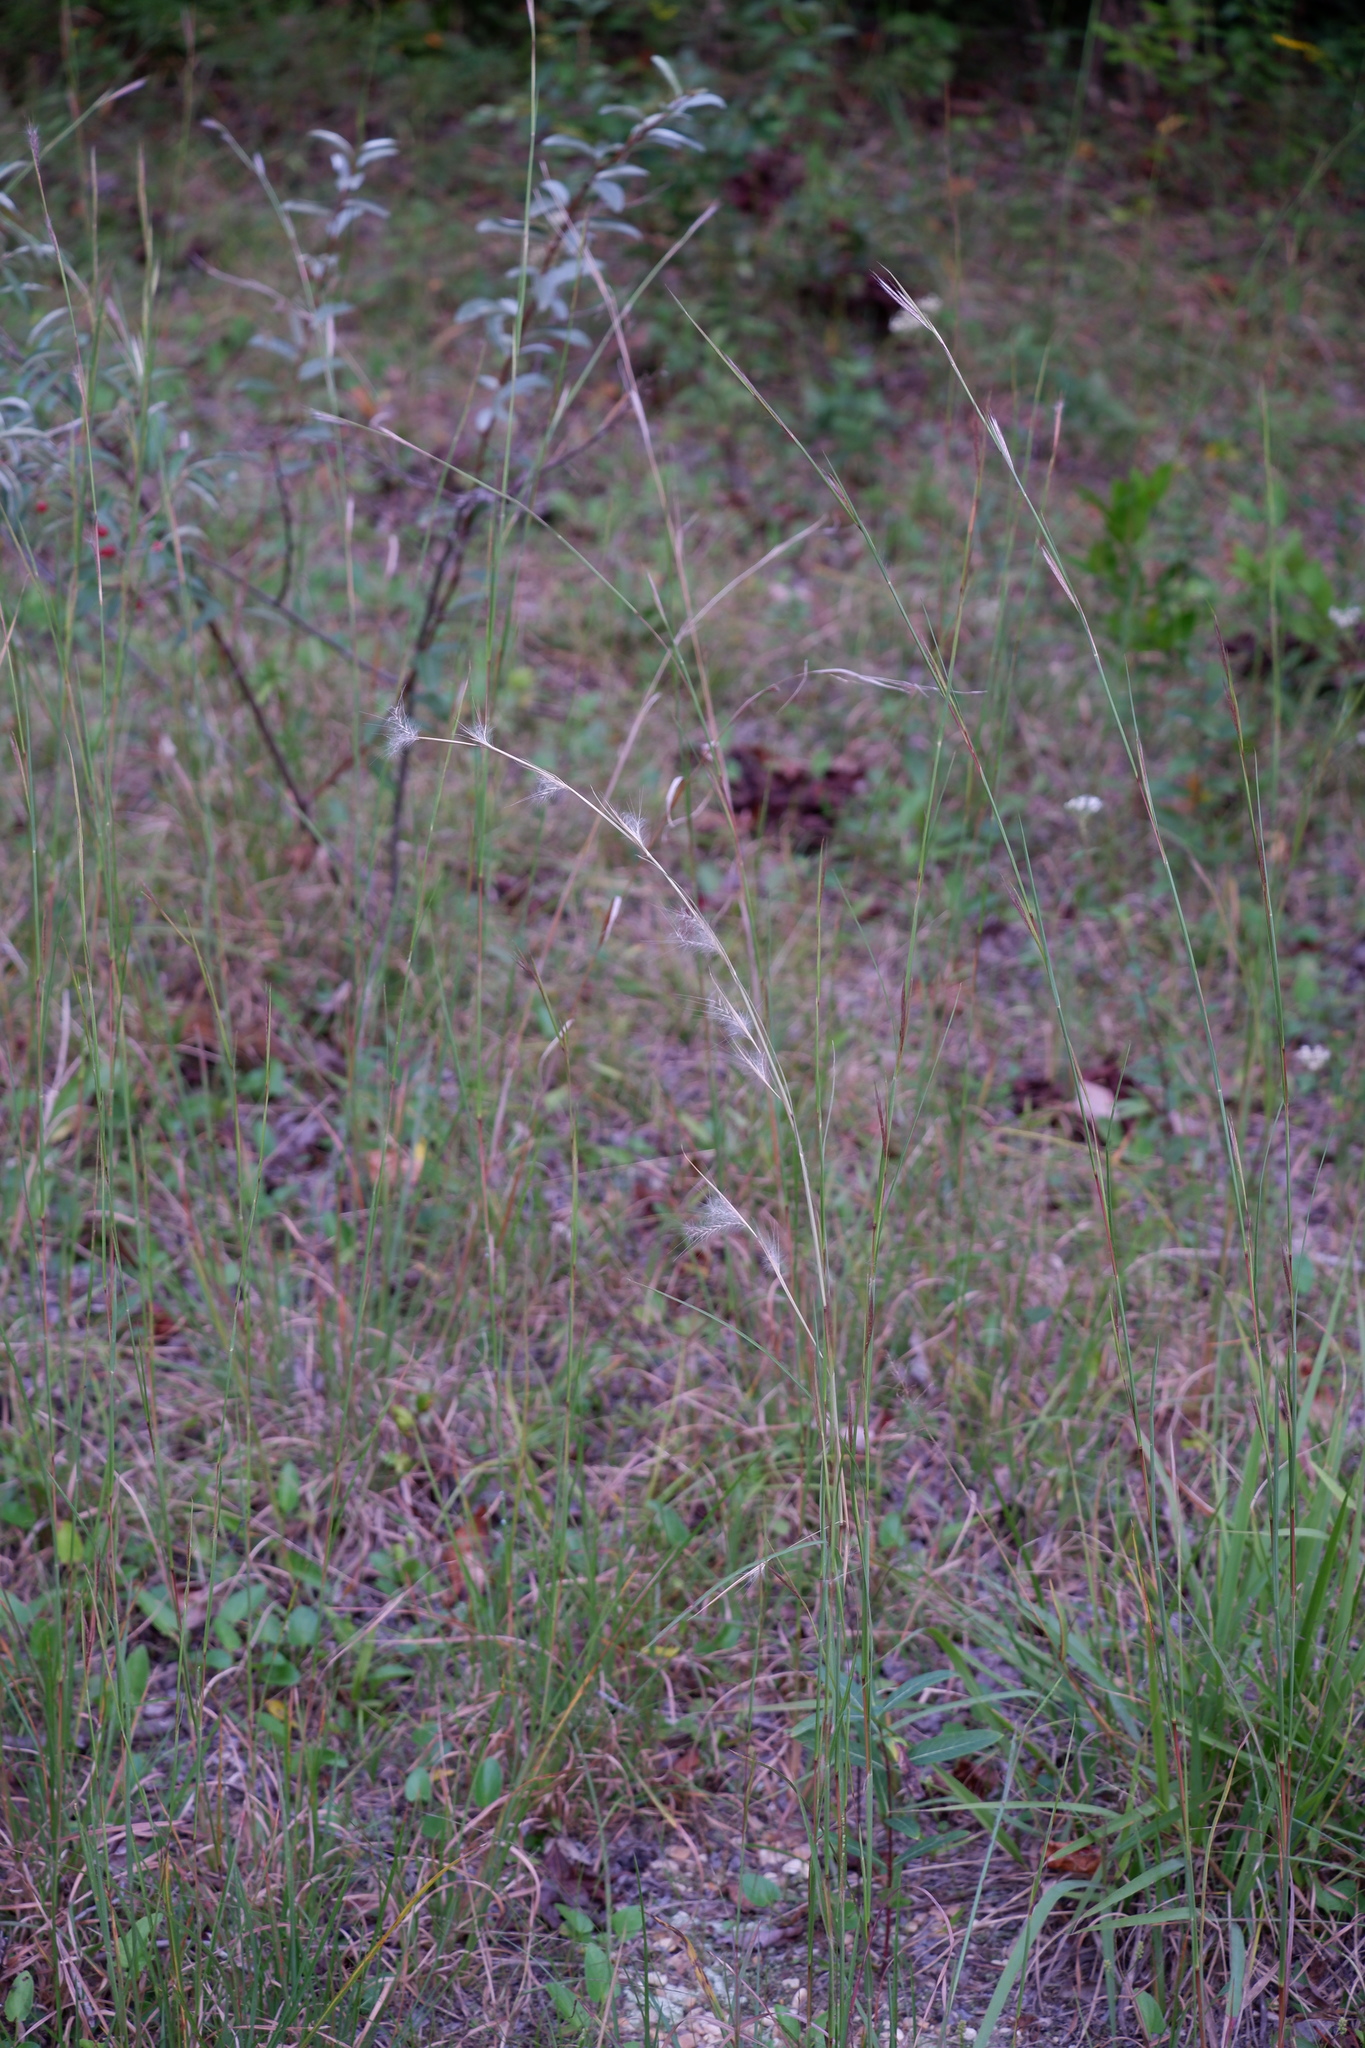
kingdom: Plantae
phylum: Tracheophyta
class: Liliopsida
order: Poales
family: Poaceae
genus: Andropogon
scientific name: Andropogon virginicus
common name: Broomsedge bluestem
